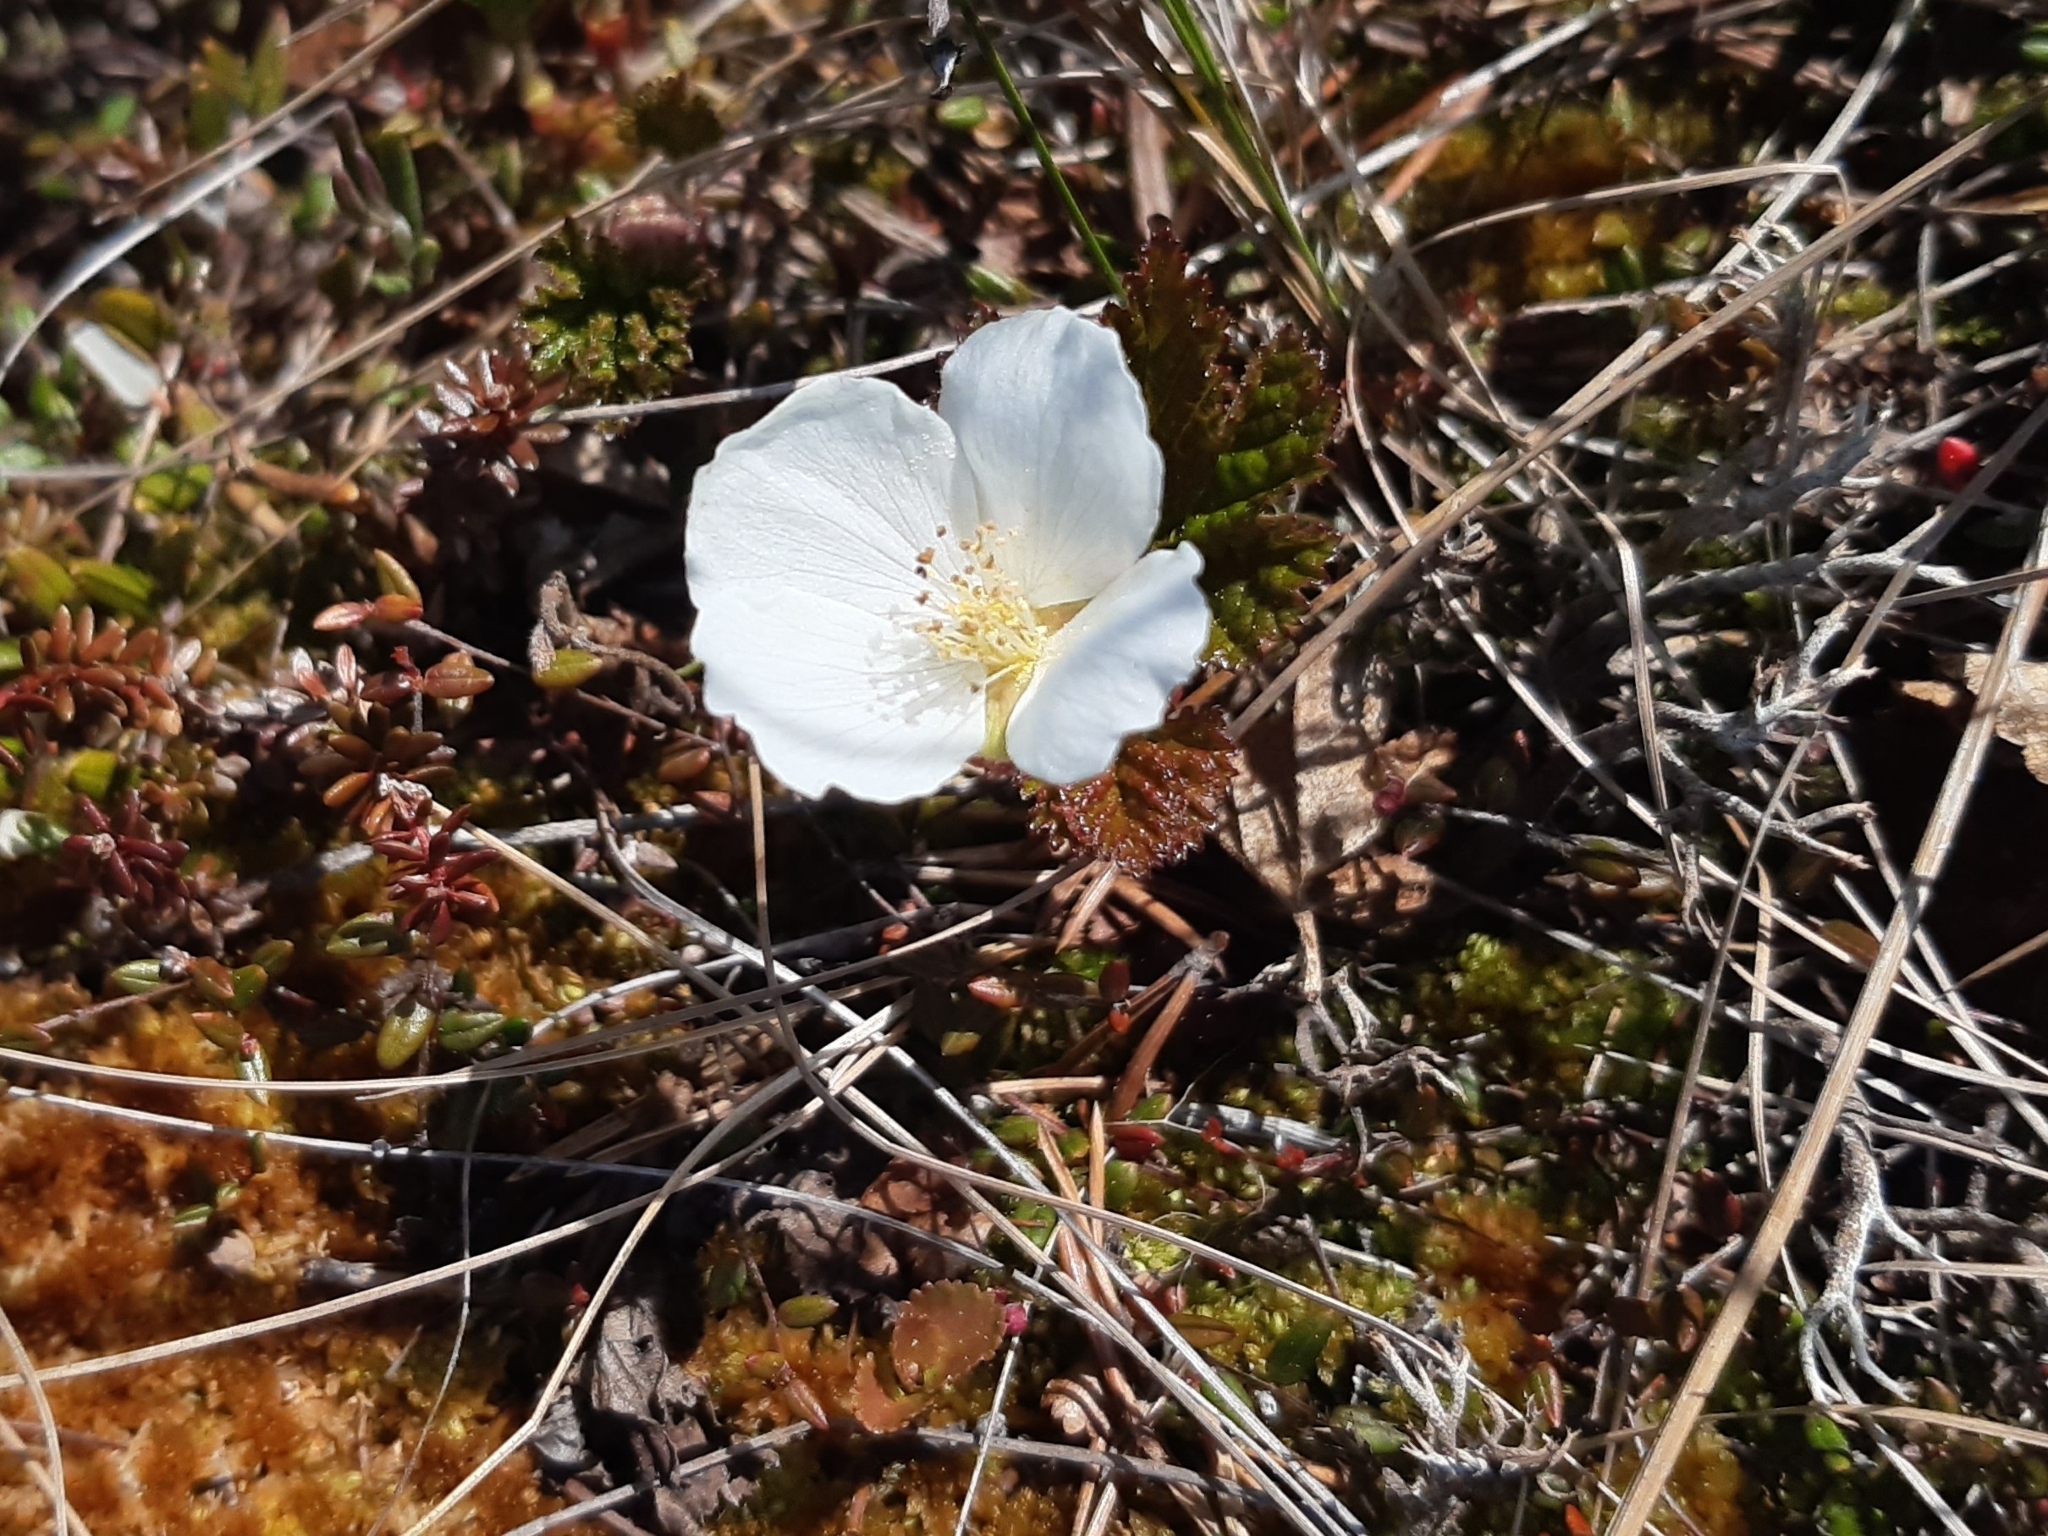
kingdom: Plantae
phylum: Tracheophyta
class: Magnoliopsida
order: Rosales
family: Rosaceae
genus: Rubus
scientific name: Rubus chamaemorus
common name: Cloudberry
